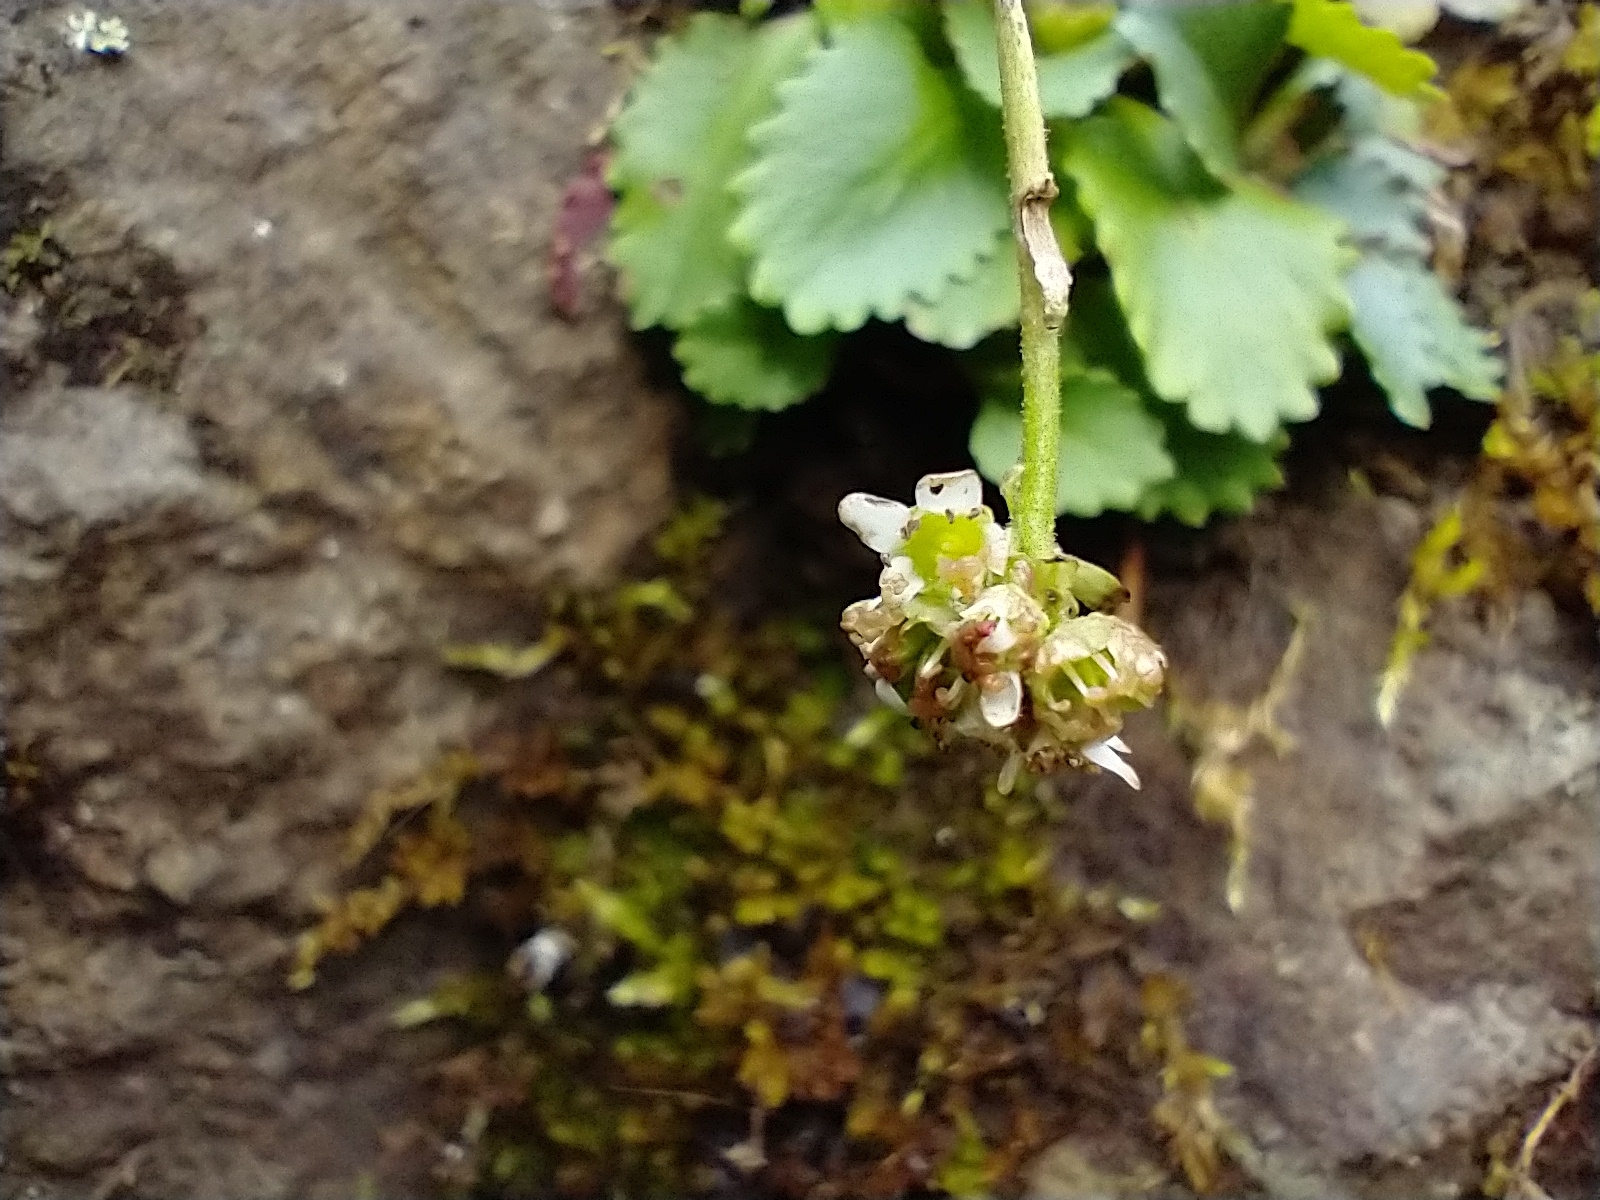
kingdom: Plantae
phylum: Tracheophyta
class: Magnoliopsida
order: Saxifragales
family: Saxifragaceae
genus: Micranthes
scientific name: Micranthes occidentalis
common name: Alberta saxifrage
